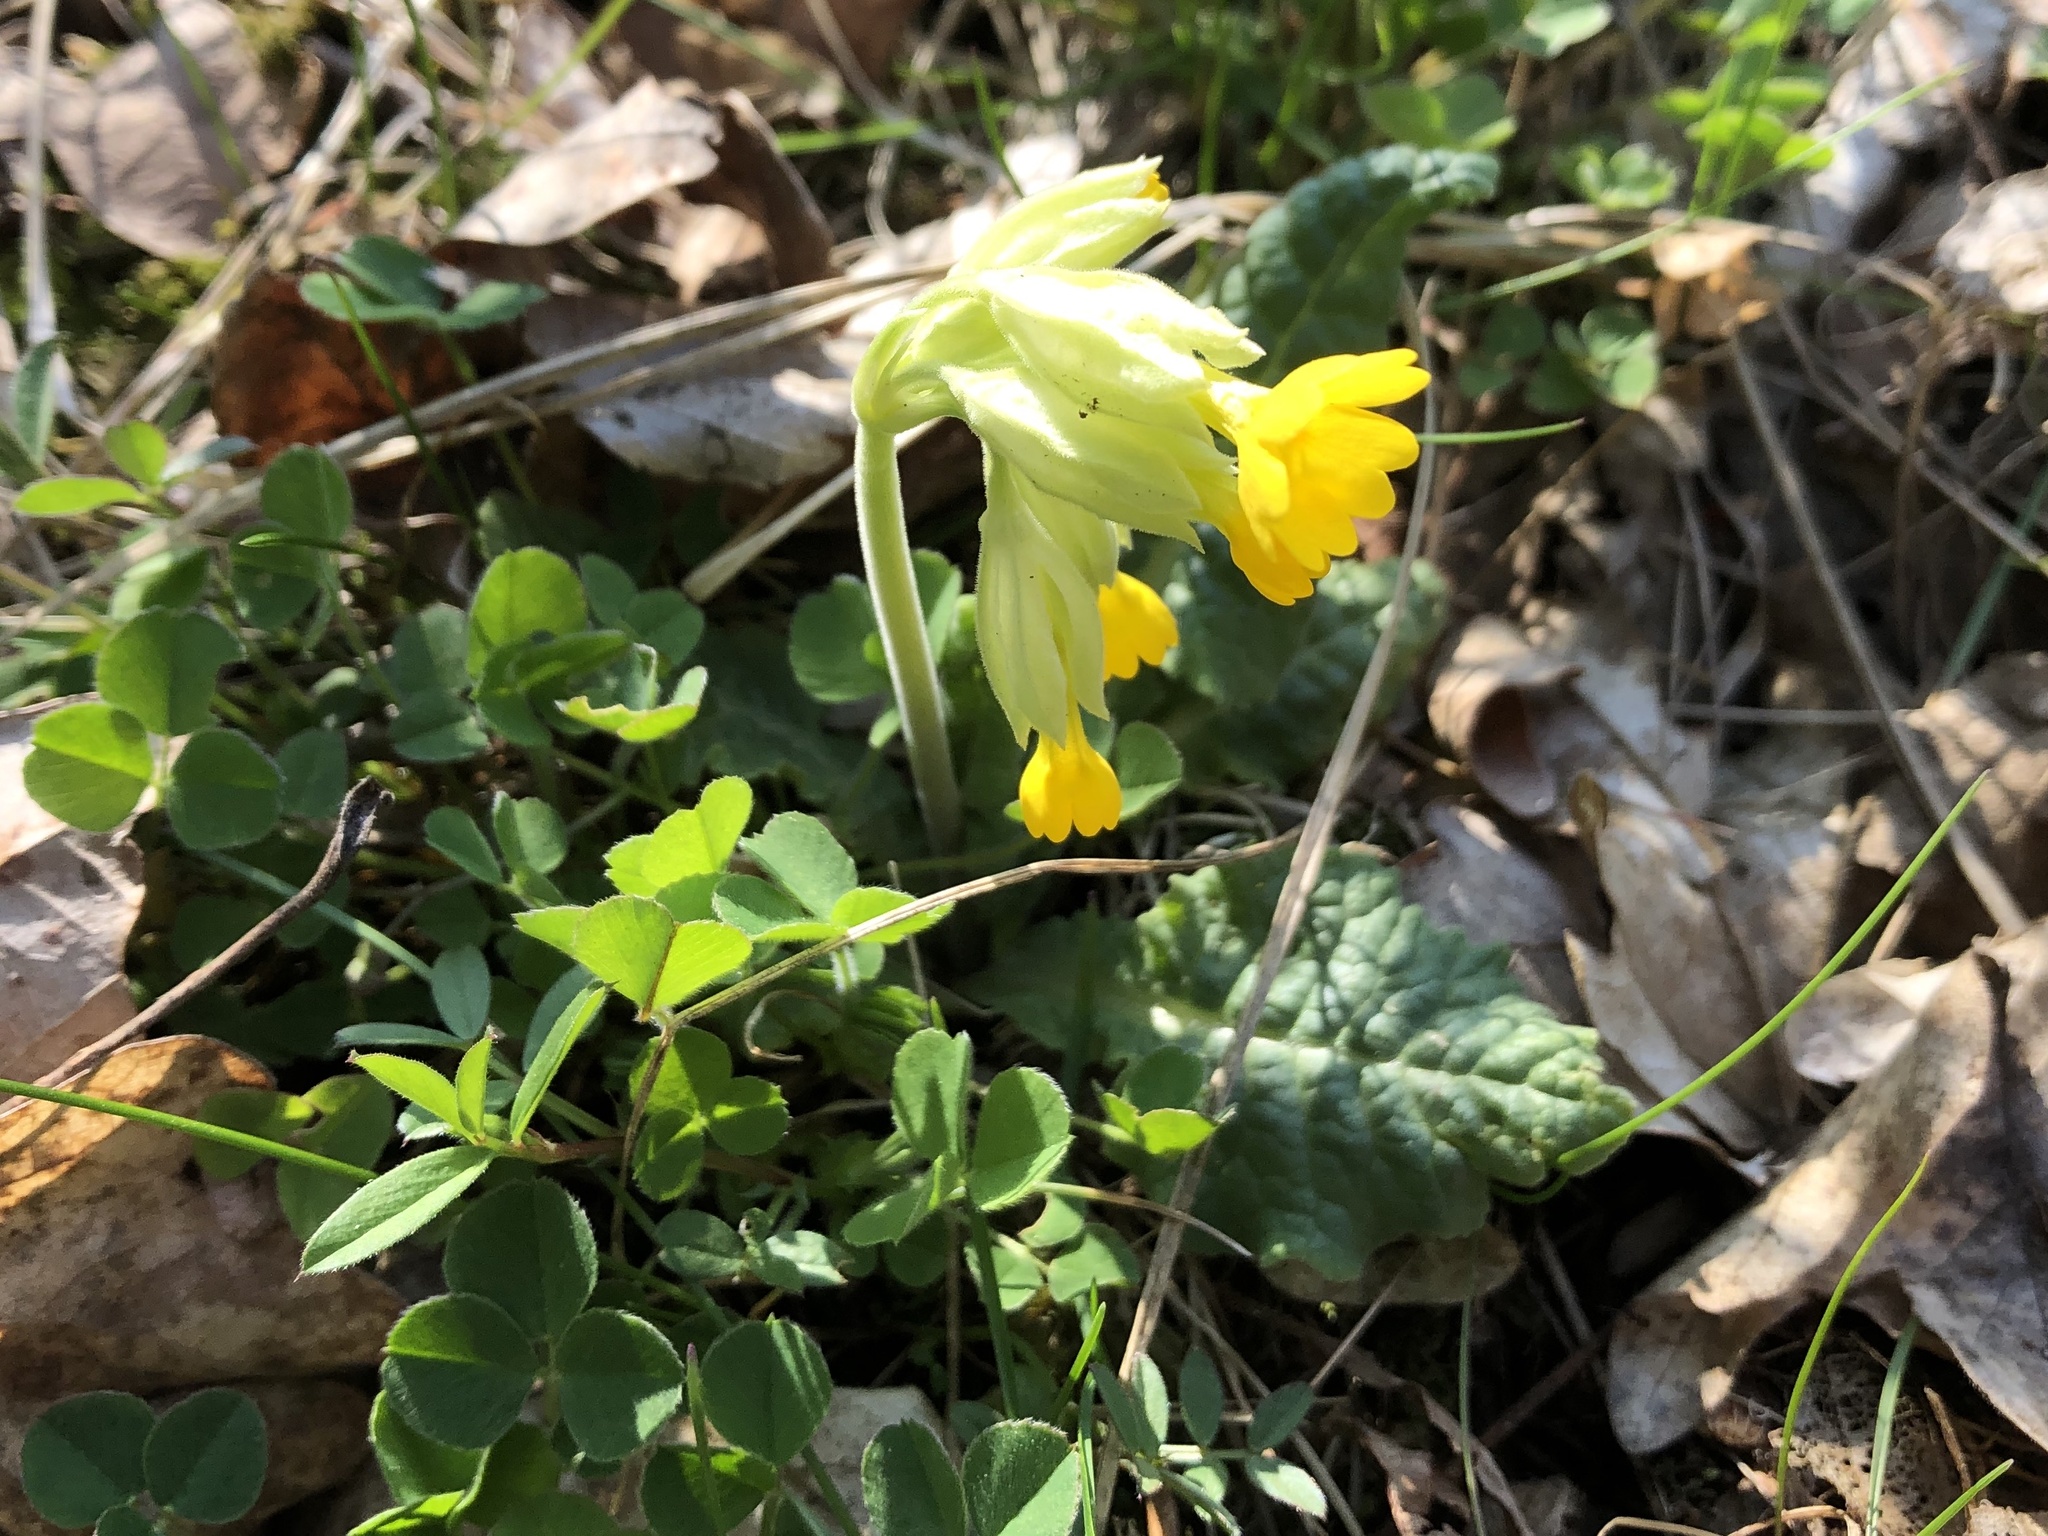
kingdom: Plantae
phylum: Tracheophyta
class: Magnoliopsida
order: Ericales
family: Primulaceae
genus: Primula
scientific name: Primula veris
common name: Cowslip
